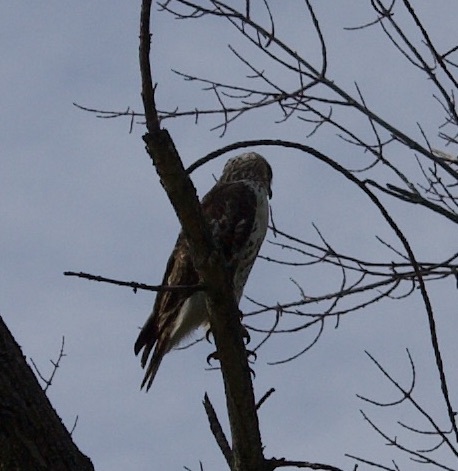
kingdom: Animalia
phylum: Chordata
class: Aves
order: Accipitriformes
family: Accipitridae
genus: Buteo
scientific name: Buteo jamaicensis
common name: Red-tailed hawk
